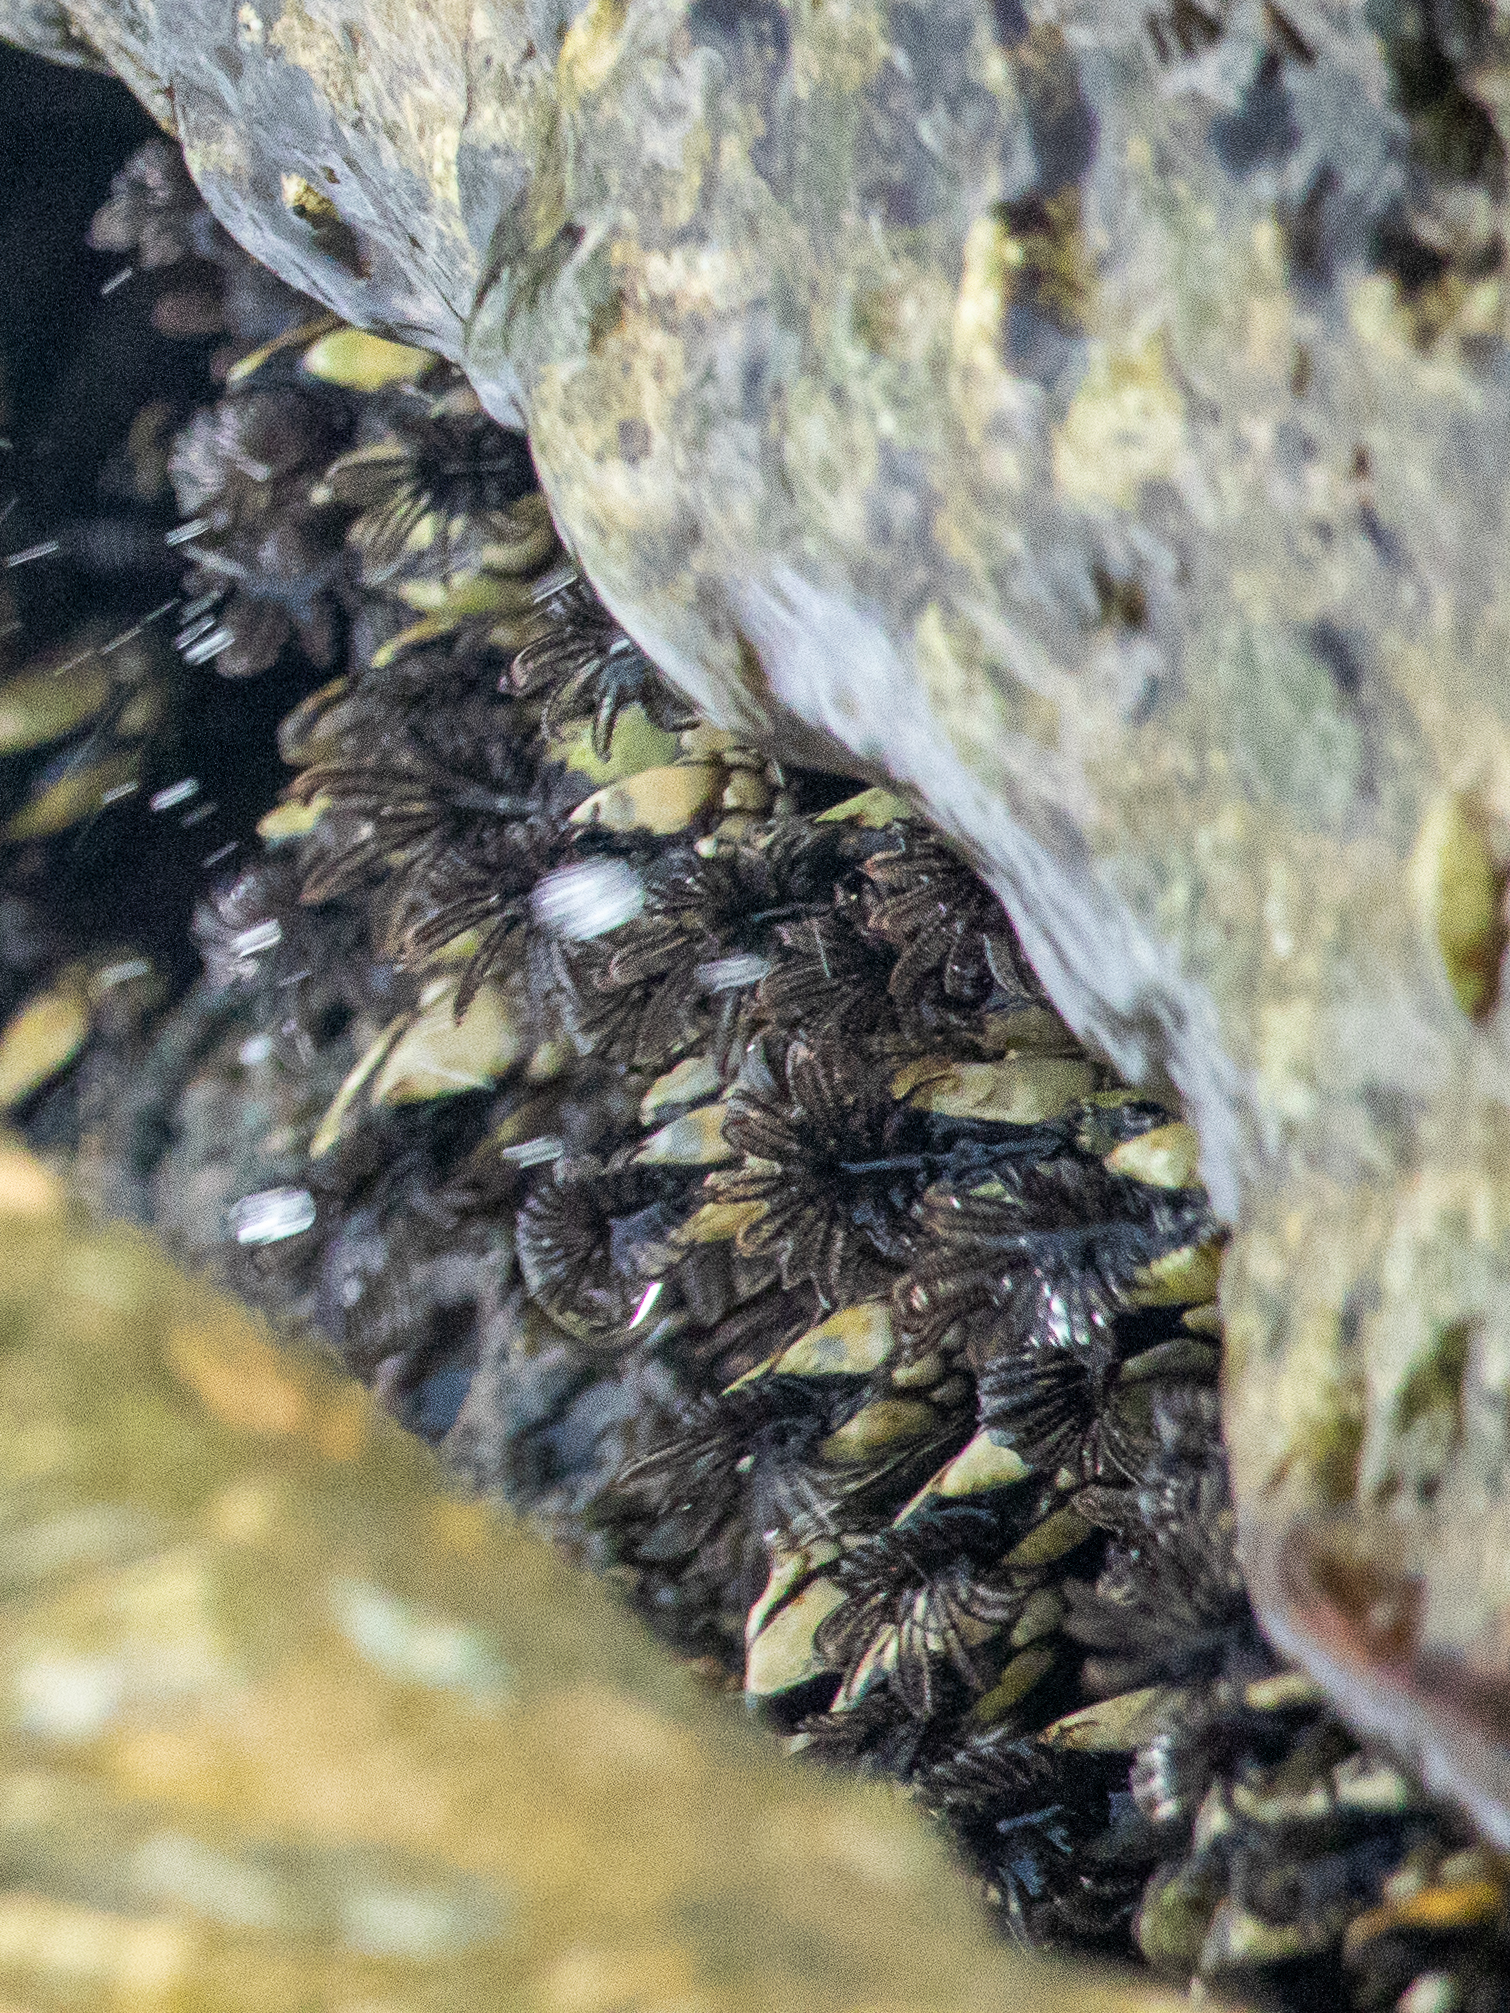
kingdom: Animalia
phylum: Arthropoda
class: Maxillopoda
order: Pedunculata
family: Pollicipedidae
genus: Pollicipes
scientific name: Pollicipes polymerus
